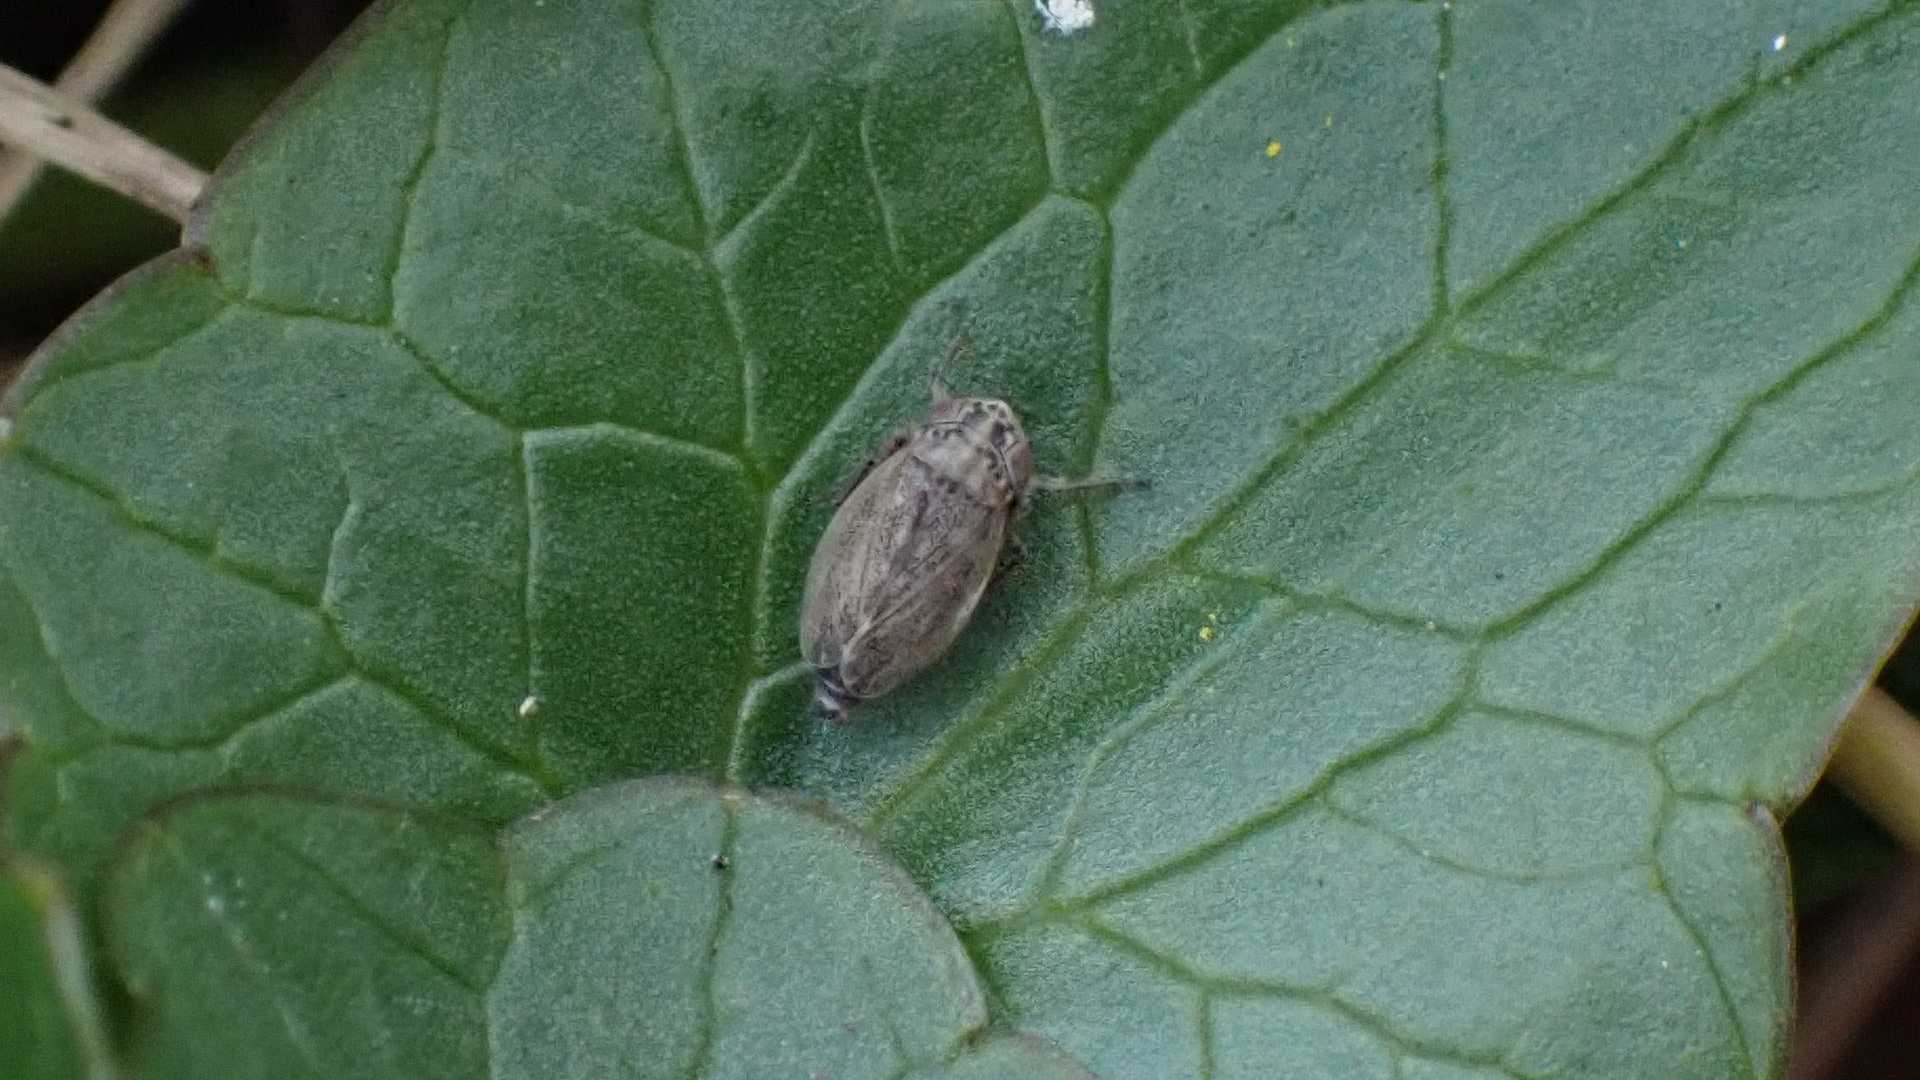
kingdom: Animalia
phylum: Arthropoda
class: Insecta
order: Hemiptera
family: Cicadellidae
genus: Euscelis
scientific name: Euscelis incisa
